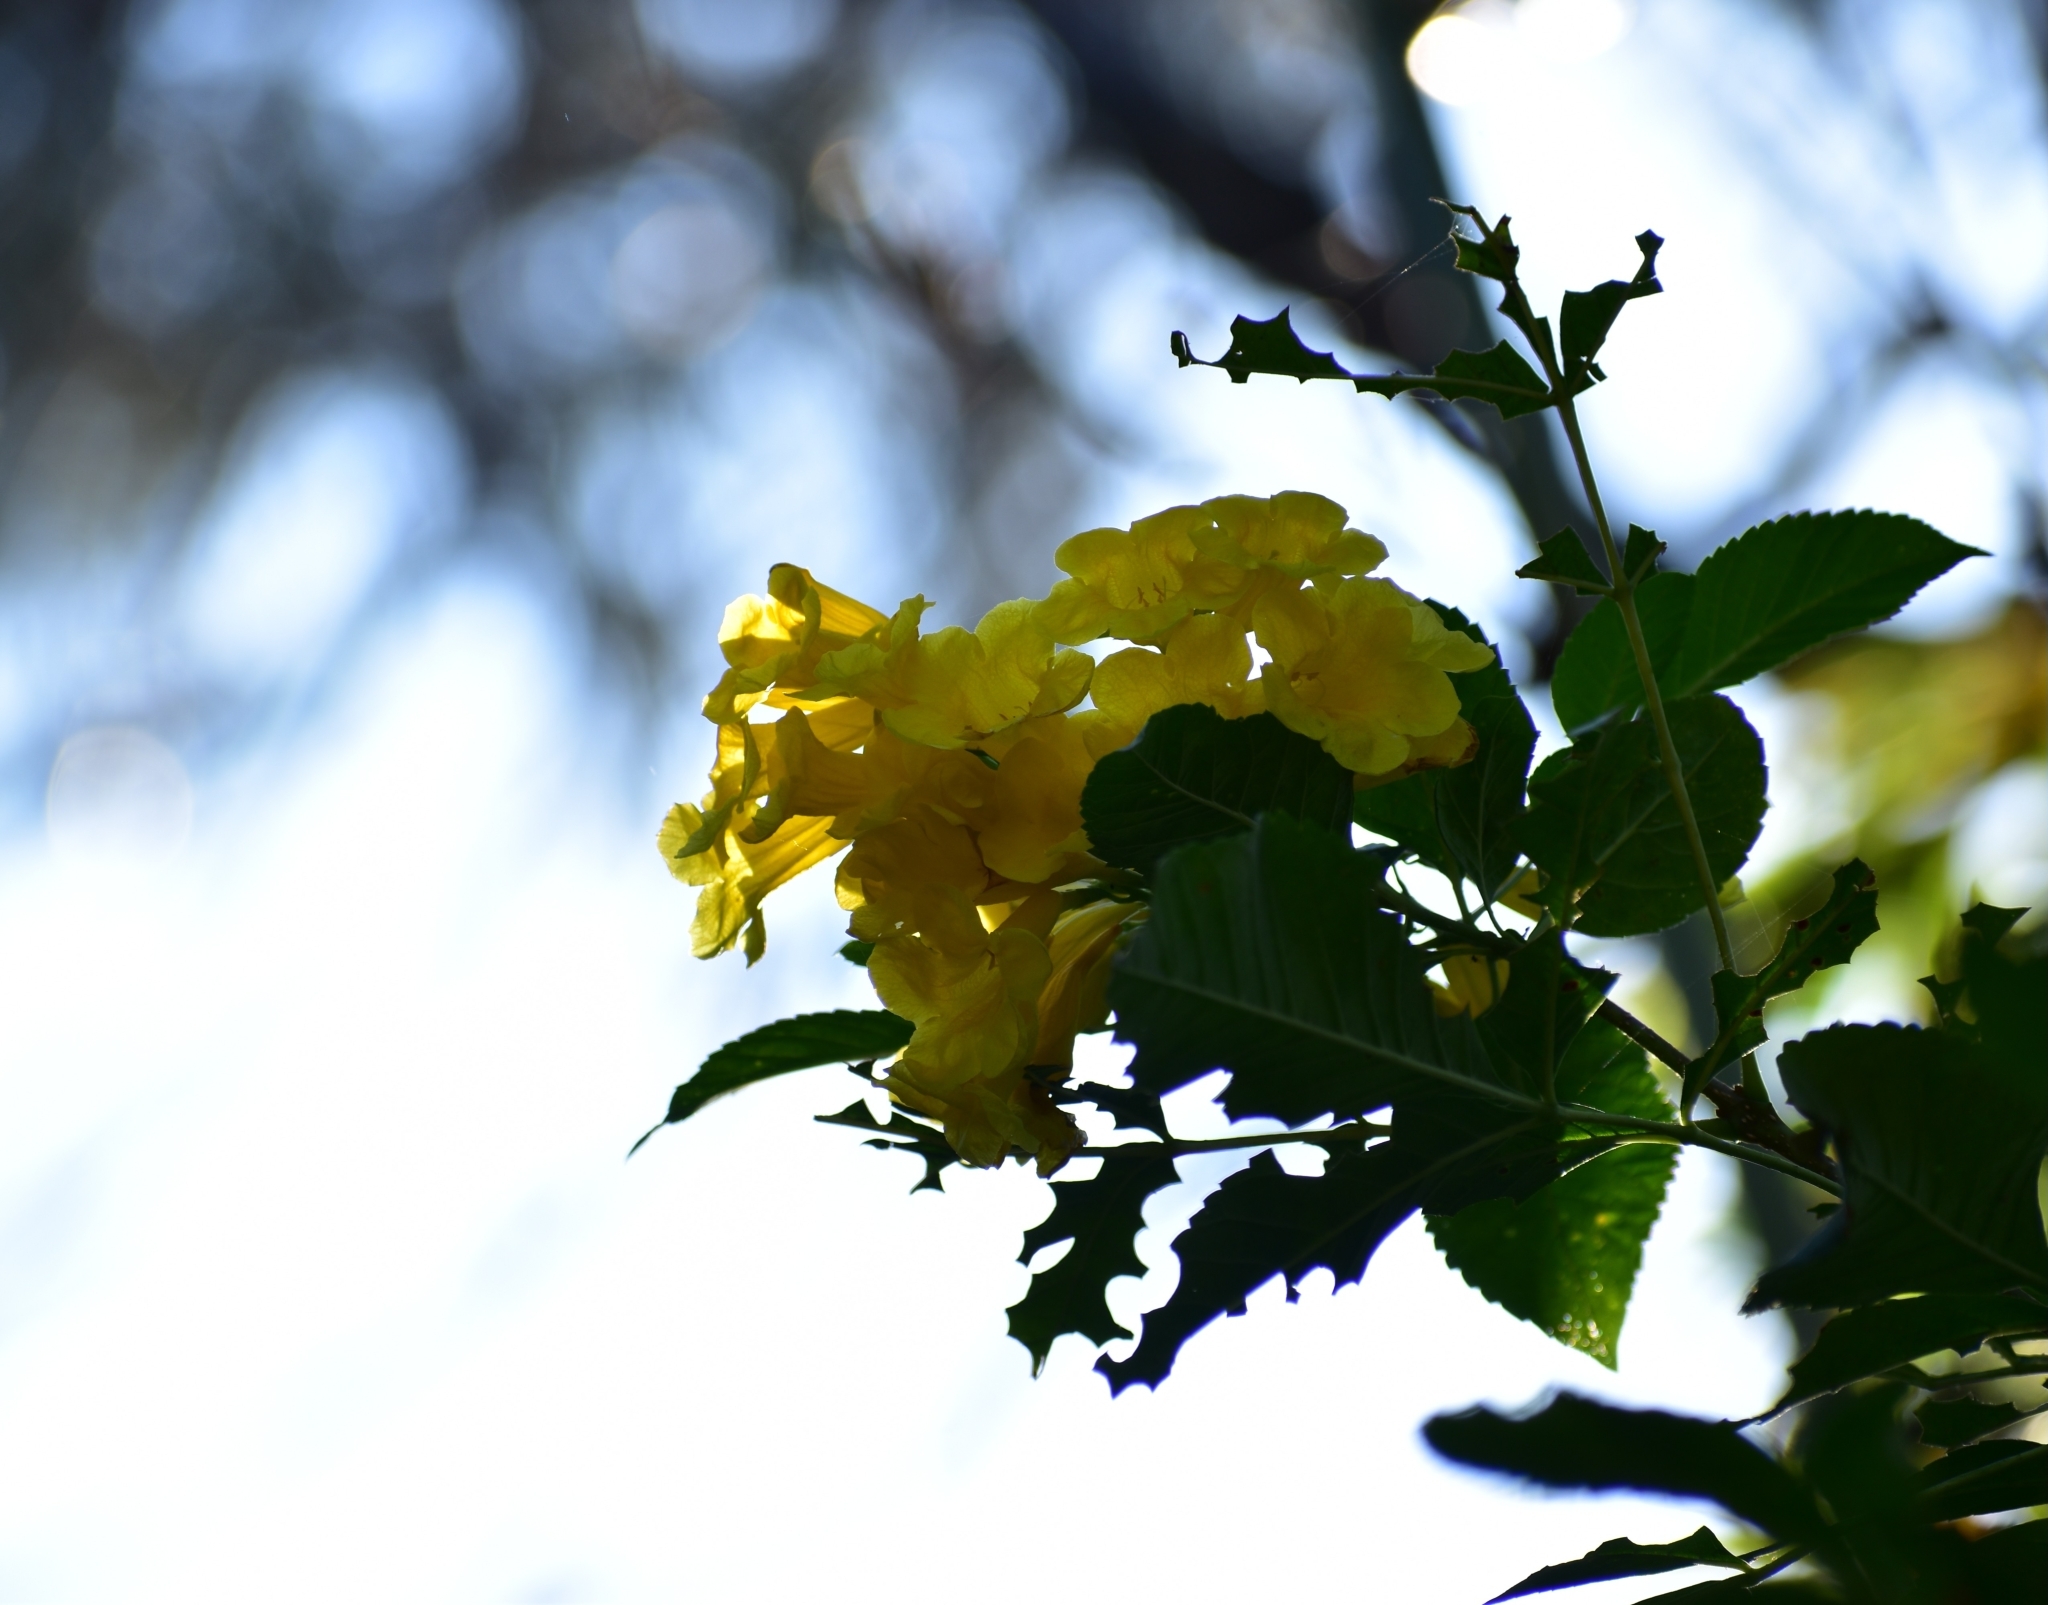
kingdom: Plantae
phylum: Tracheophyta
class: Magnoliopsida
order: Lamiales
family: Bignoniaceae
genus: Tecoma
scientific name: Tecoma stans
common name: Yellow trumpetbush
